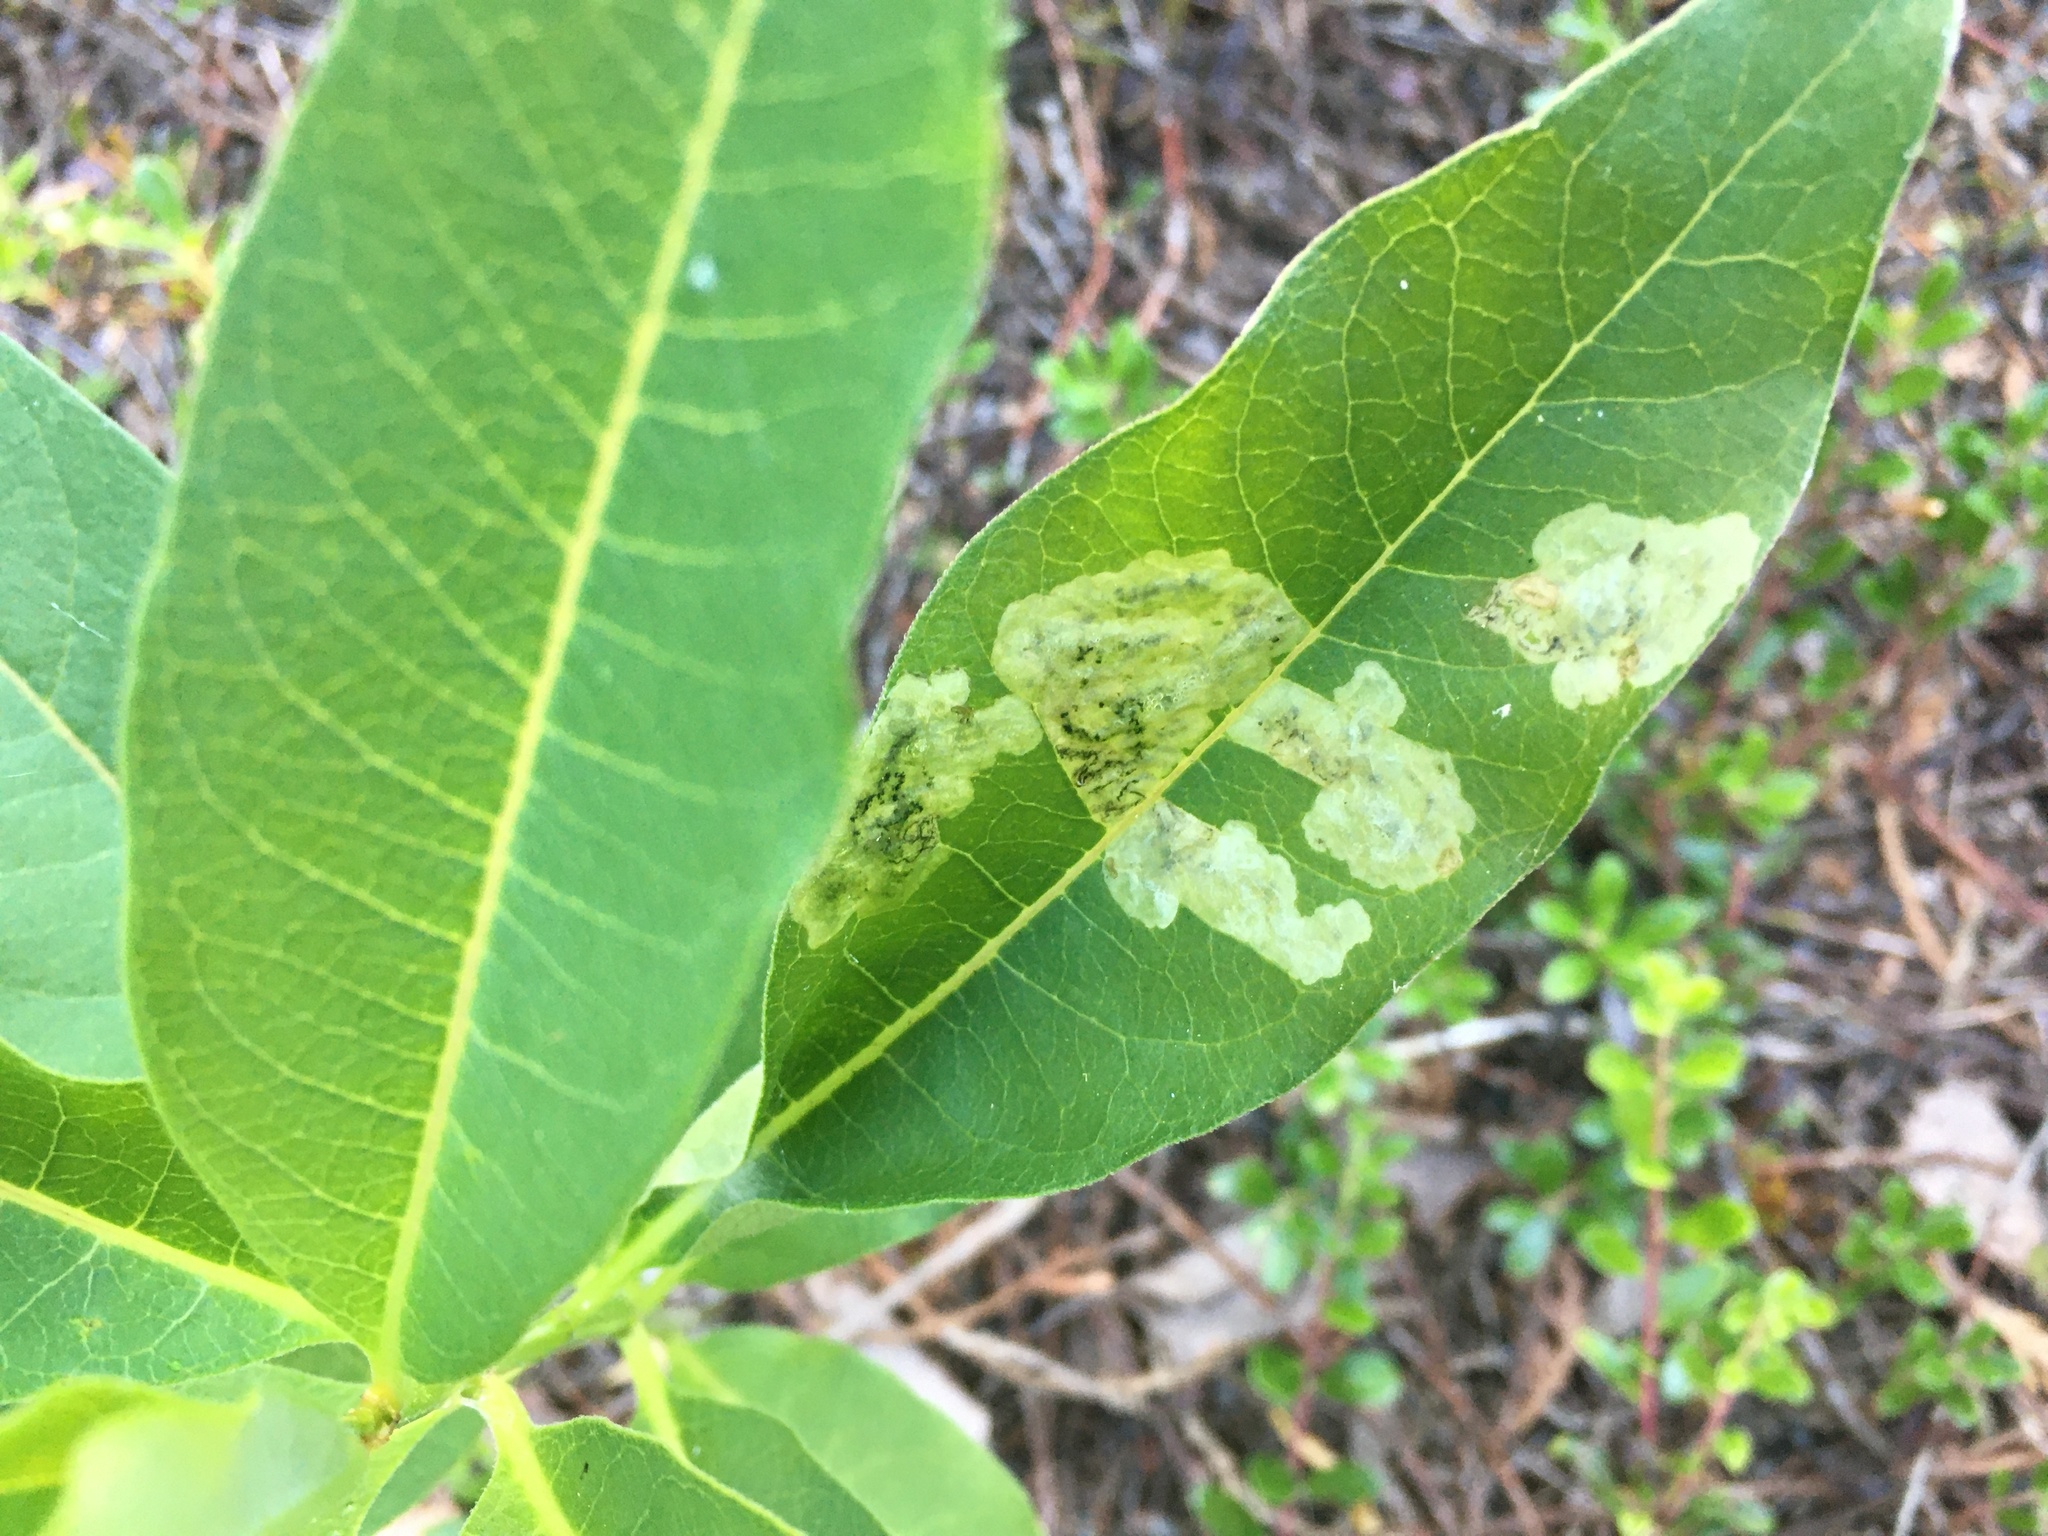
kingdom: Animalia
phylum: Arthropoda
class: Insecta
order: Diptera
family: Agromyzidae
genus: Liriomyza
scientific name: Liriomyza asclepiadis
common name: Milkweed leaf-miner fly
